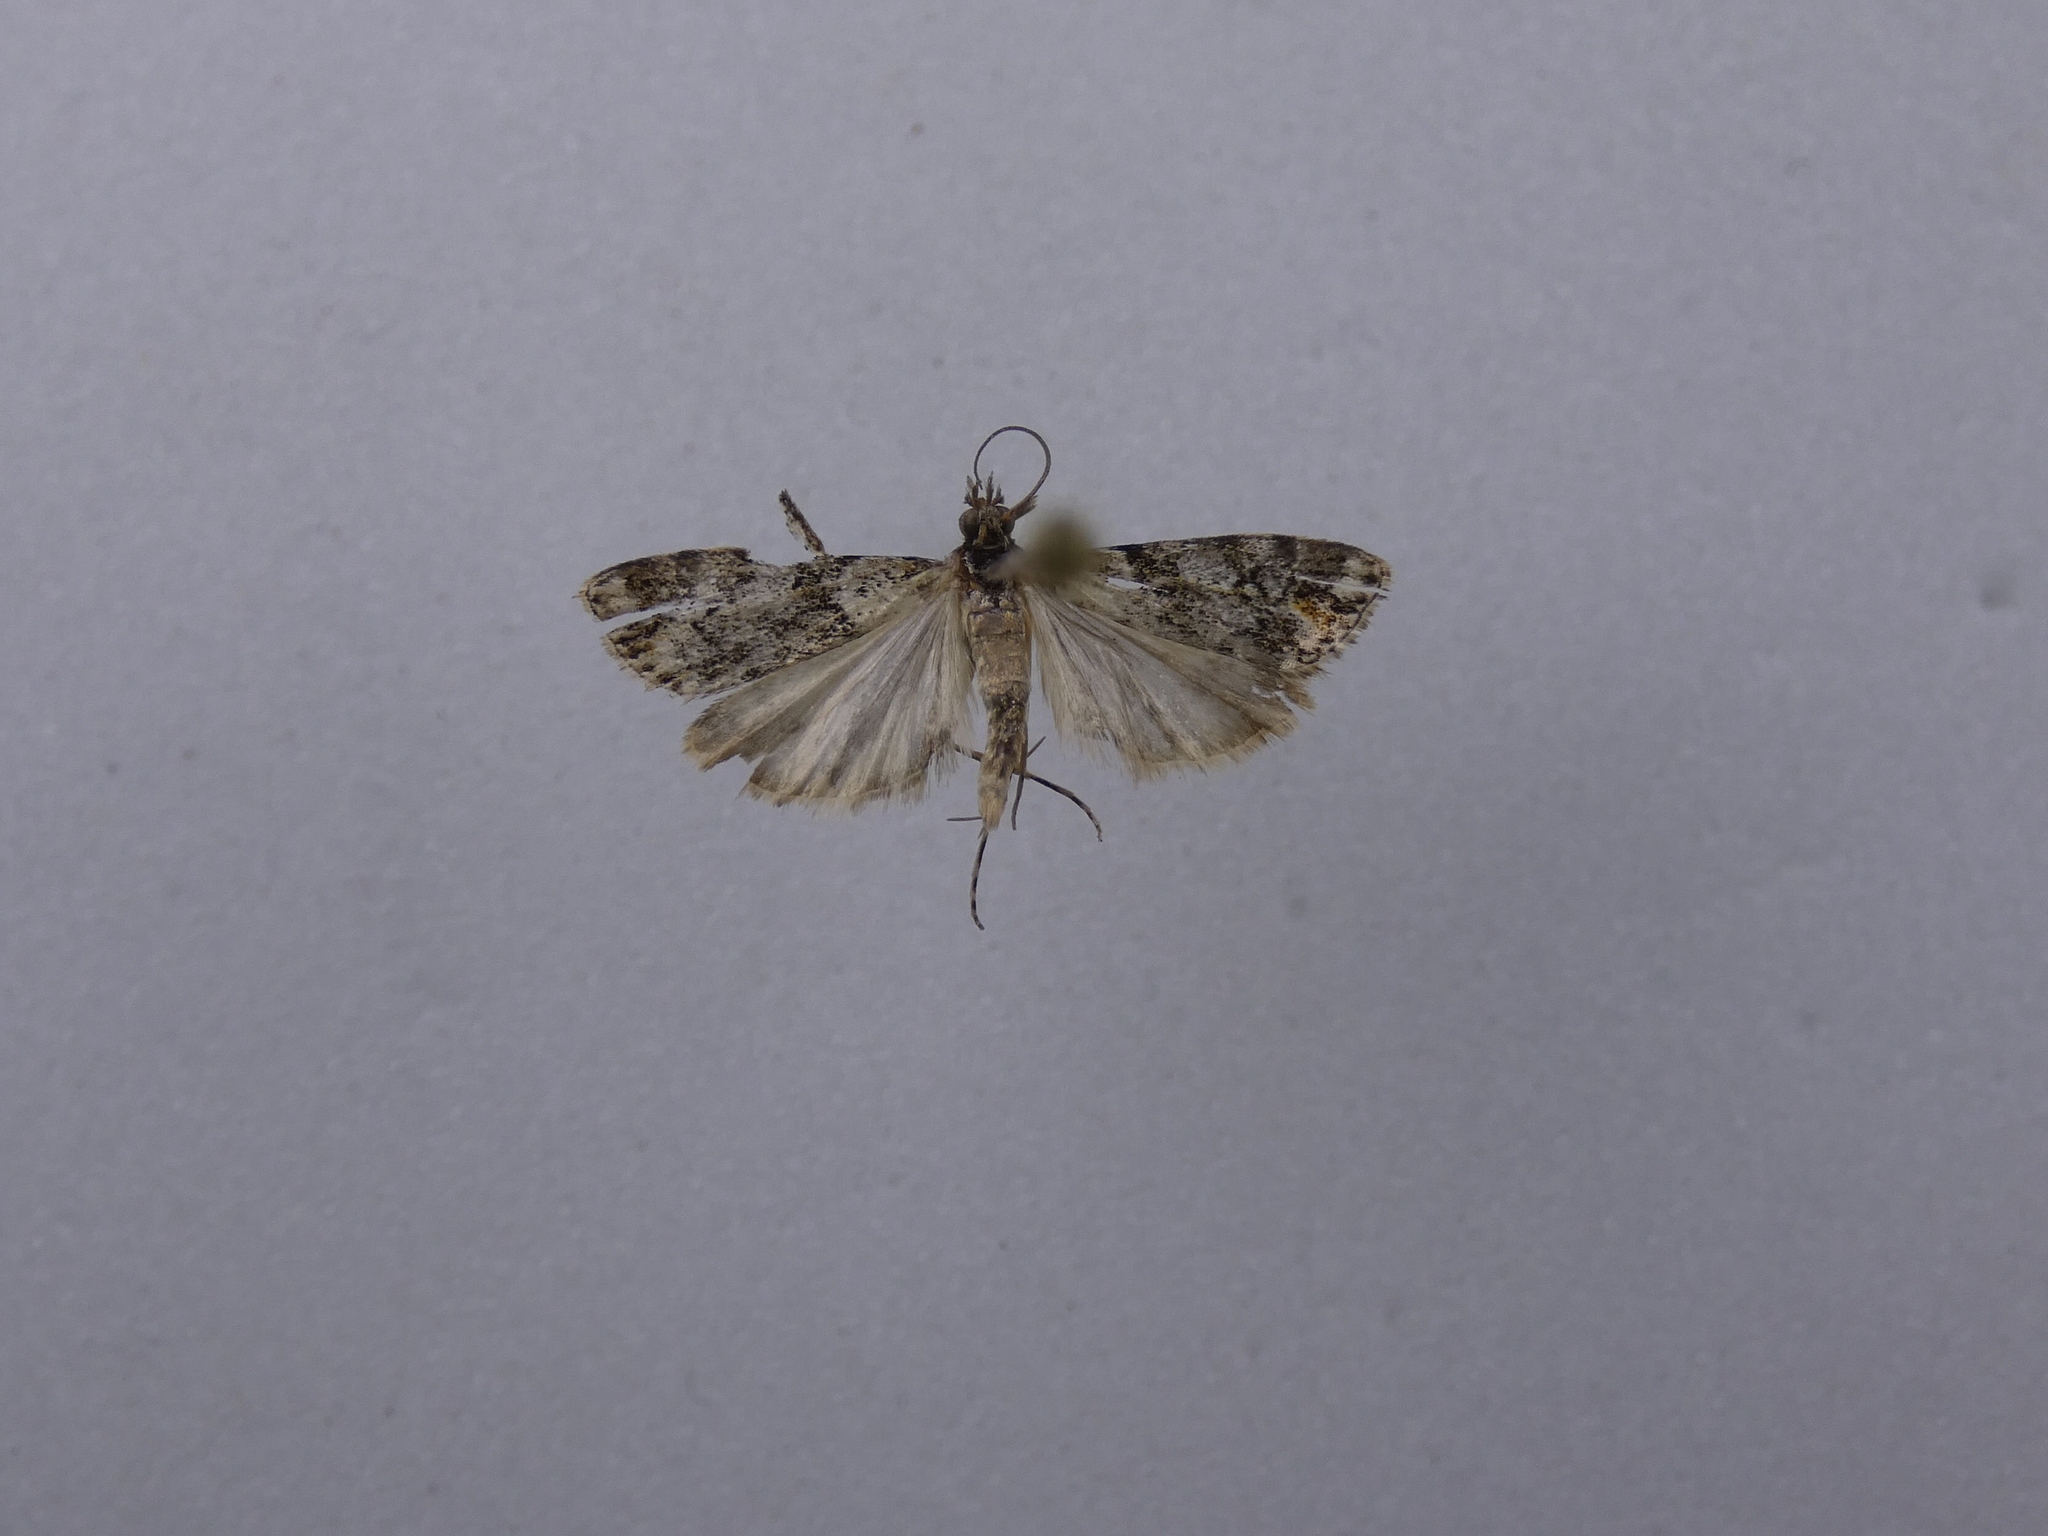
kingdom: Animalia
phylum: Arthropoda
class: Insecta
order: Lepidoptera
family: Crambidae
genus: Eudonia
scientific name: Eudonia minualis
